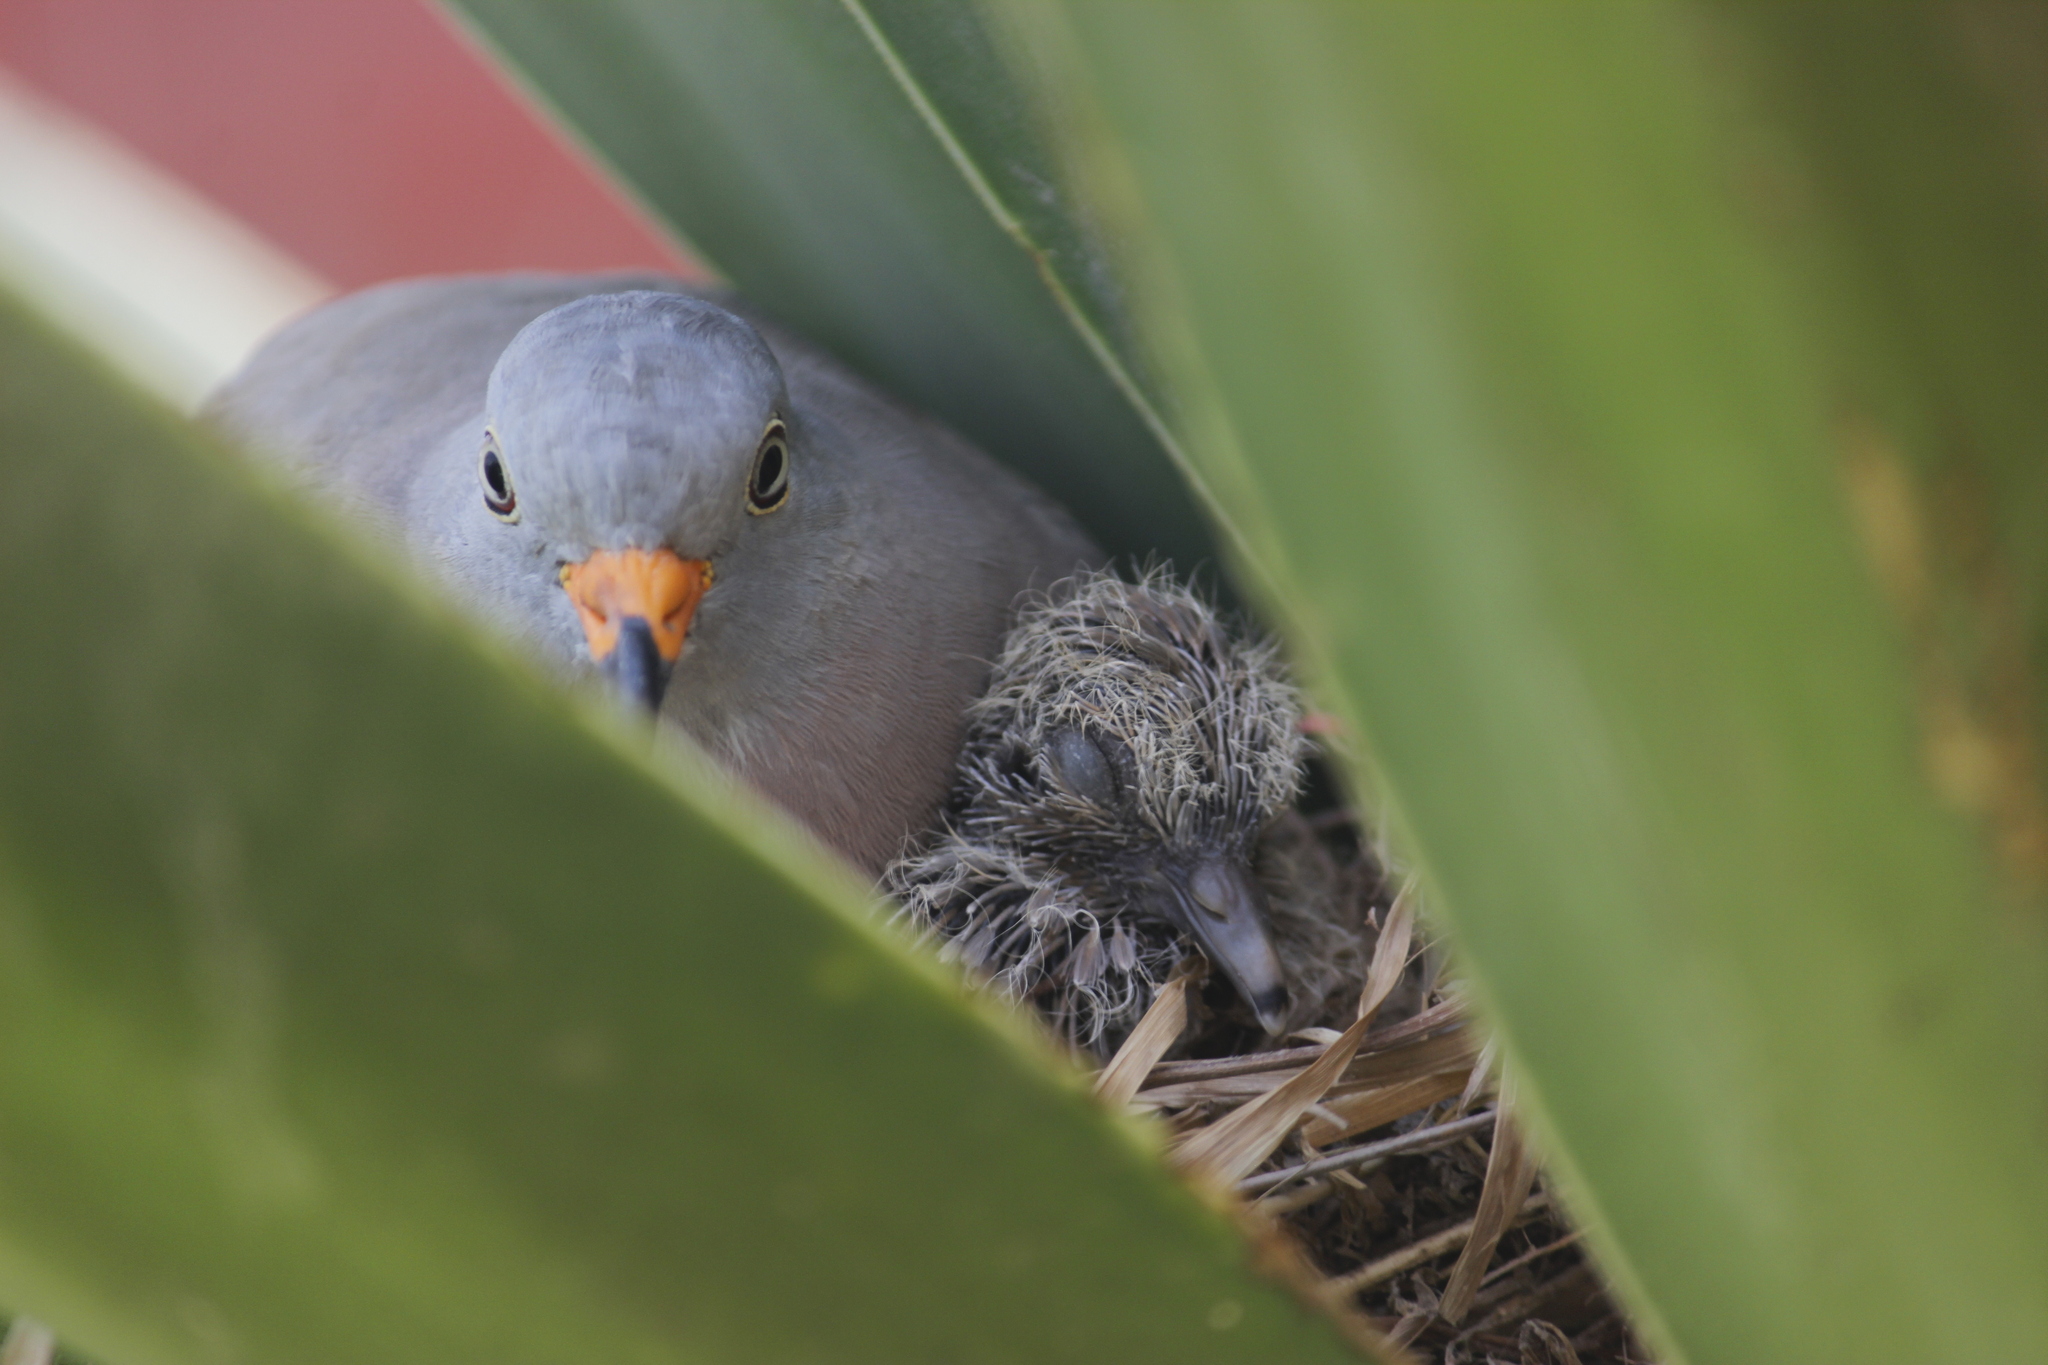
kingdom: Animalia
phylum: Chordata
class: Aves
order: Columbiformes
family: Columbidae
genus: Columbina
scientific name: Columbina cruziana
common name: Croaking ground dove
